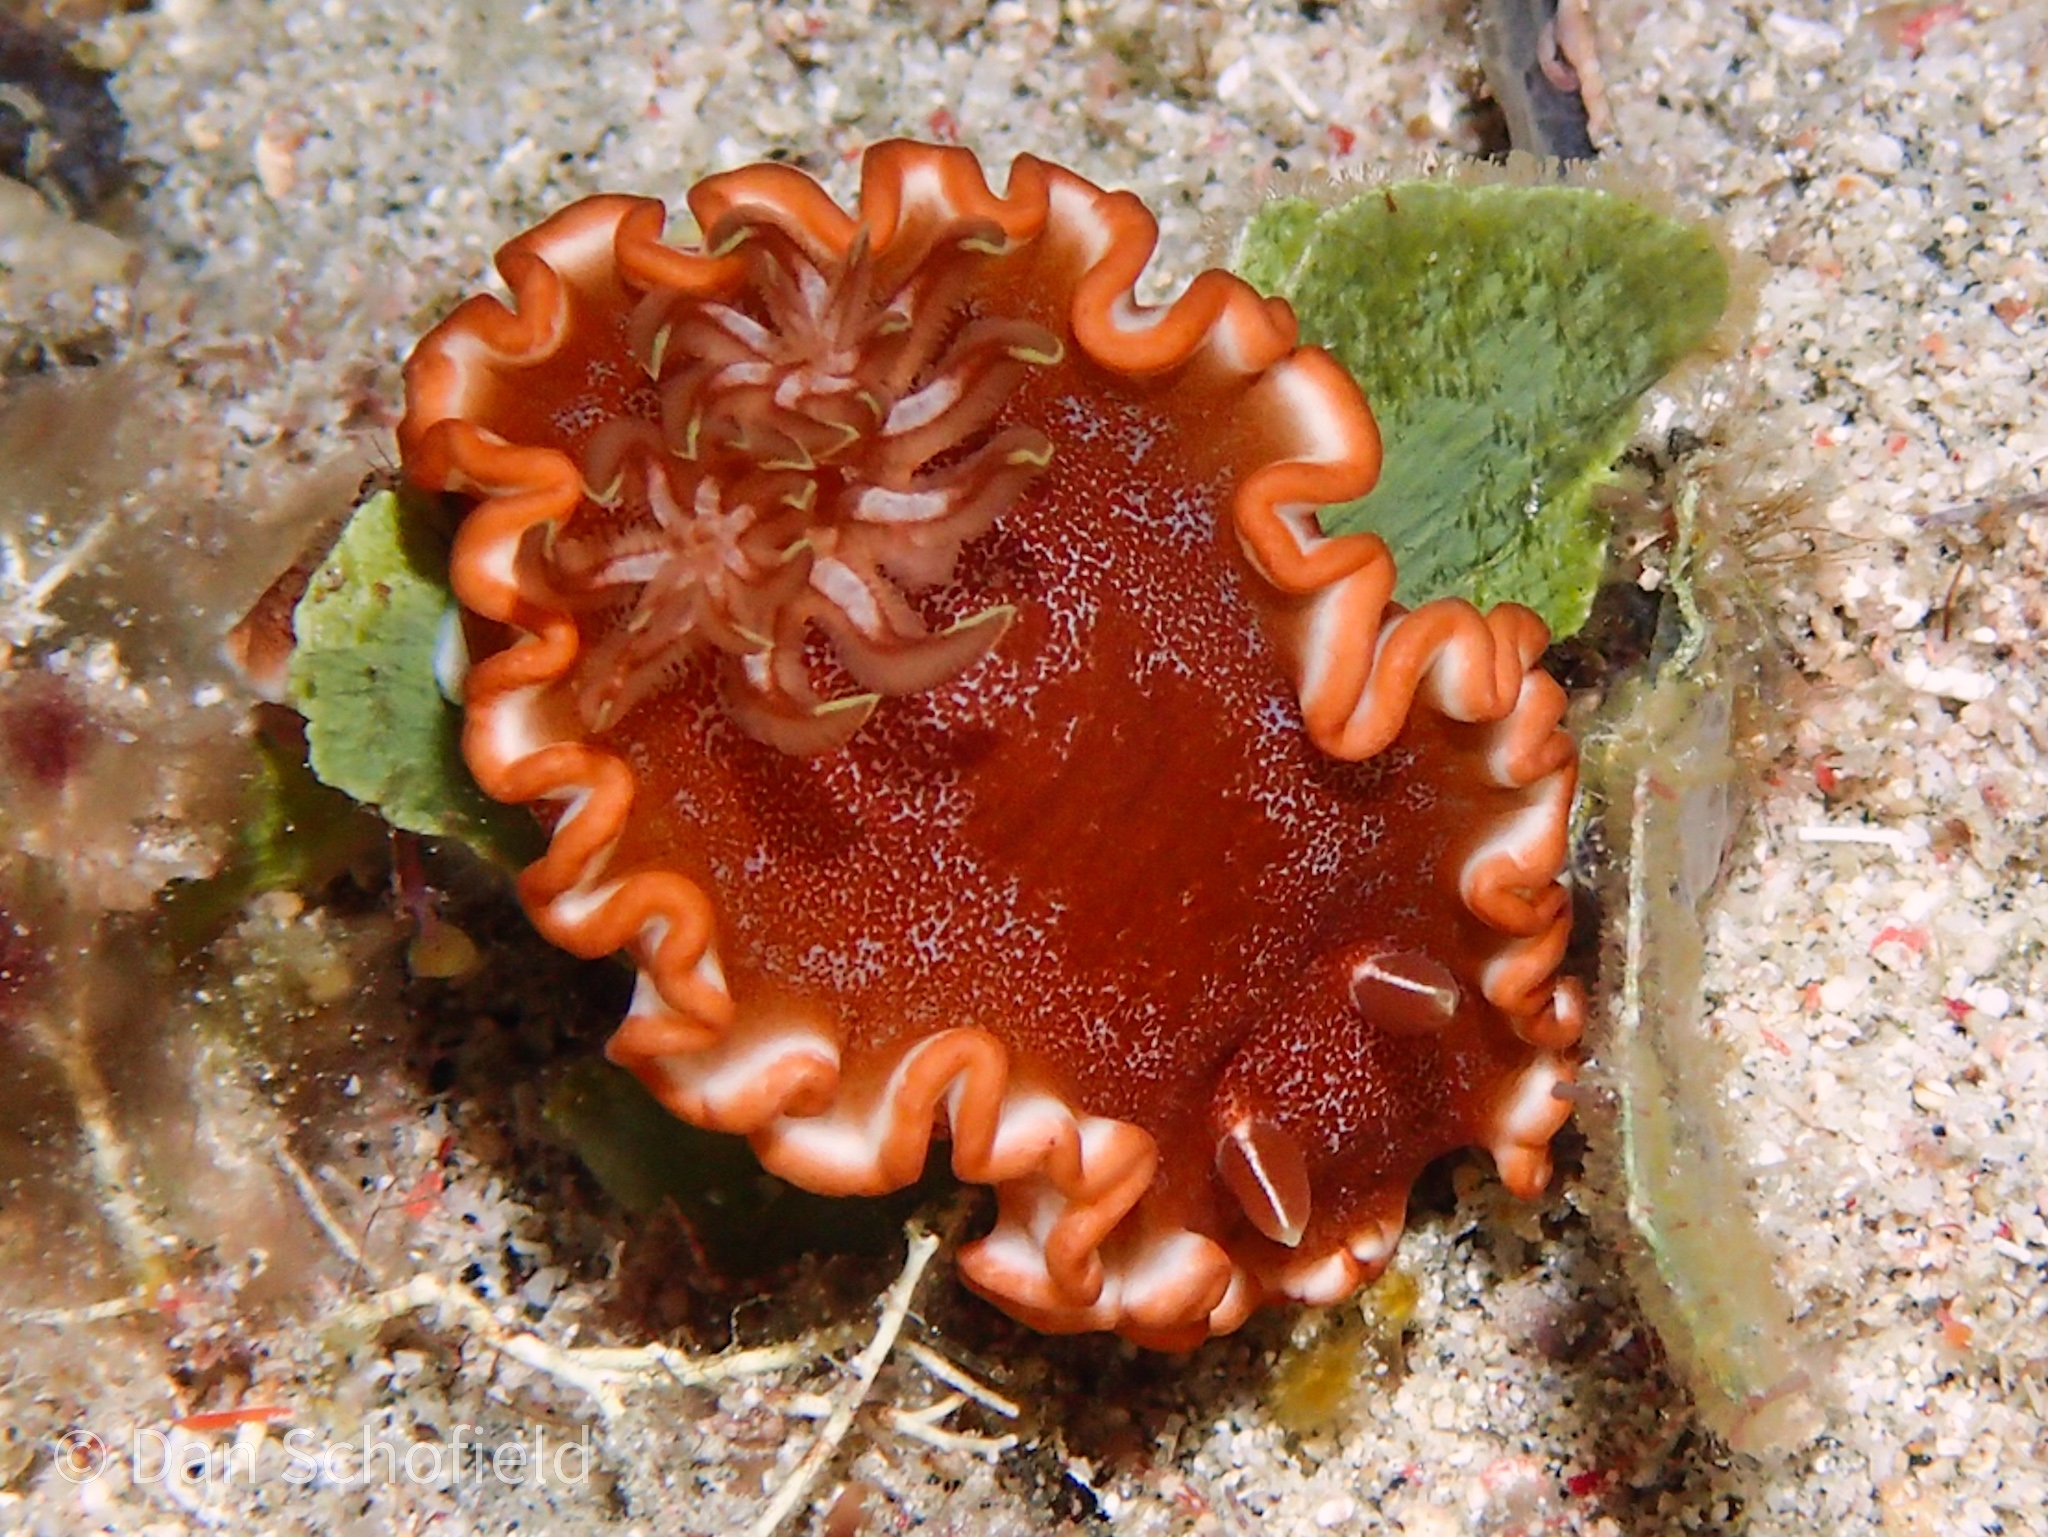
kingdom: Animalia
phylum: Mollusca
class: Gastropoda
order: Nudibranchia
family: Chromodorididae
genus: Glossodoris
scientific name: Glossodoris rufomarginata
